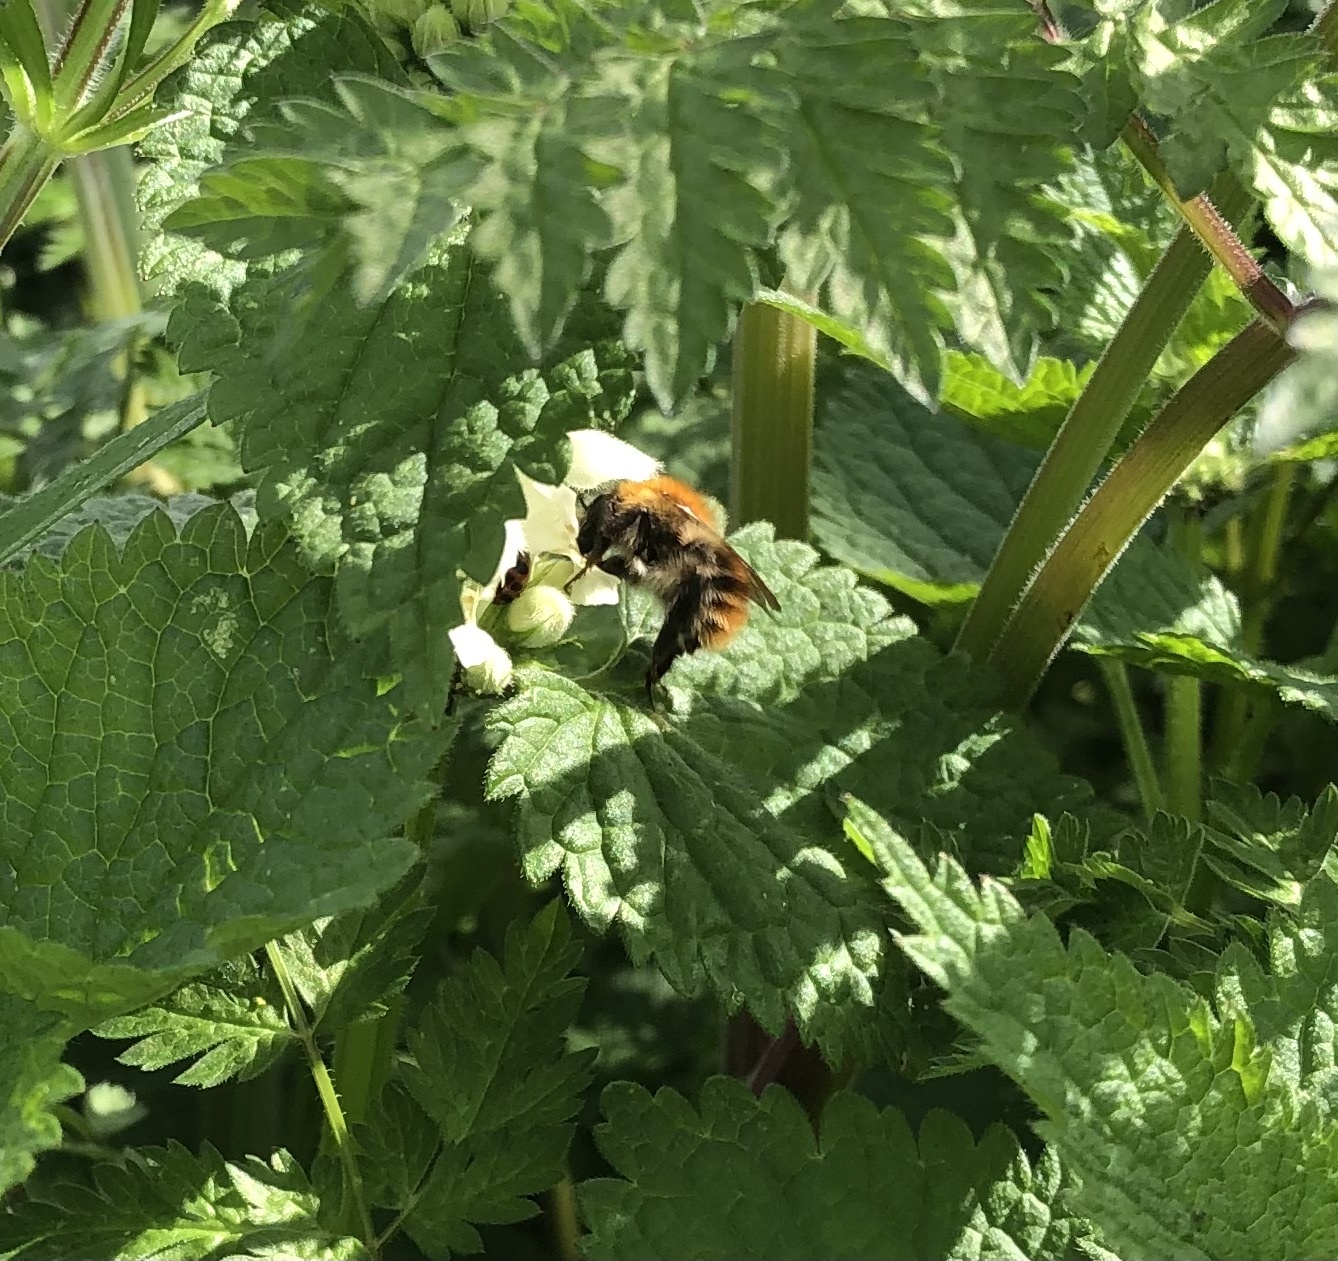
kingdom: Animalia
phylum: Arthropoda
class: Insecta
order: Hymenoptera
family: Apidae
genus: Bombus
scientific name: Bombus pascuorum
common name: Common carder bee
